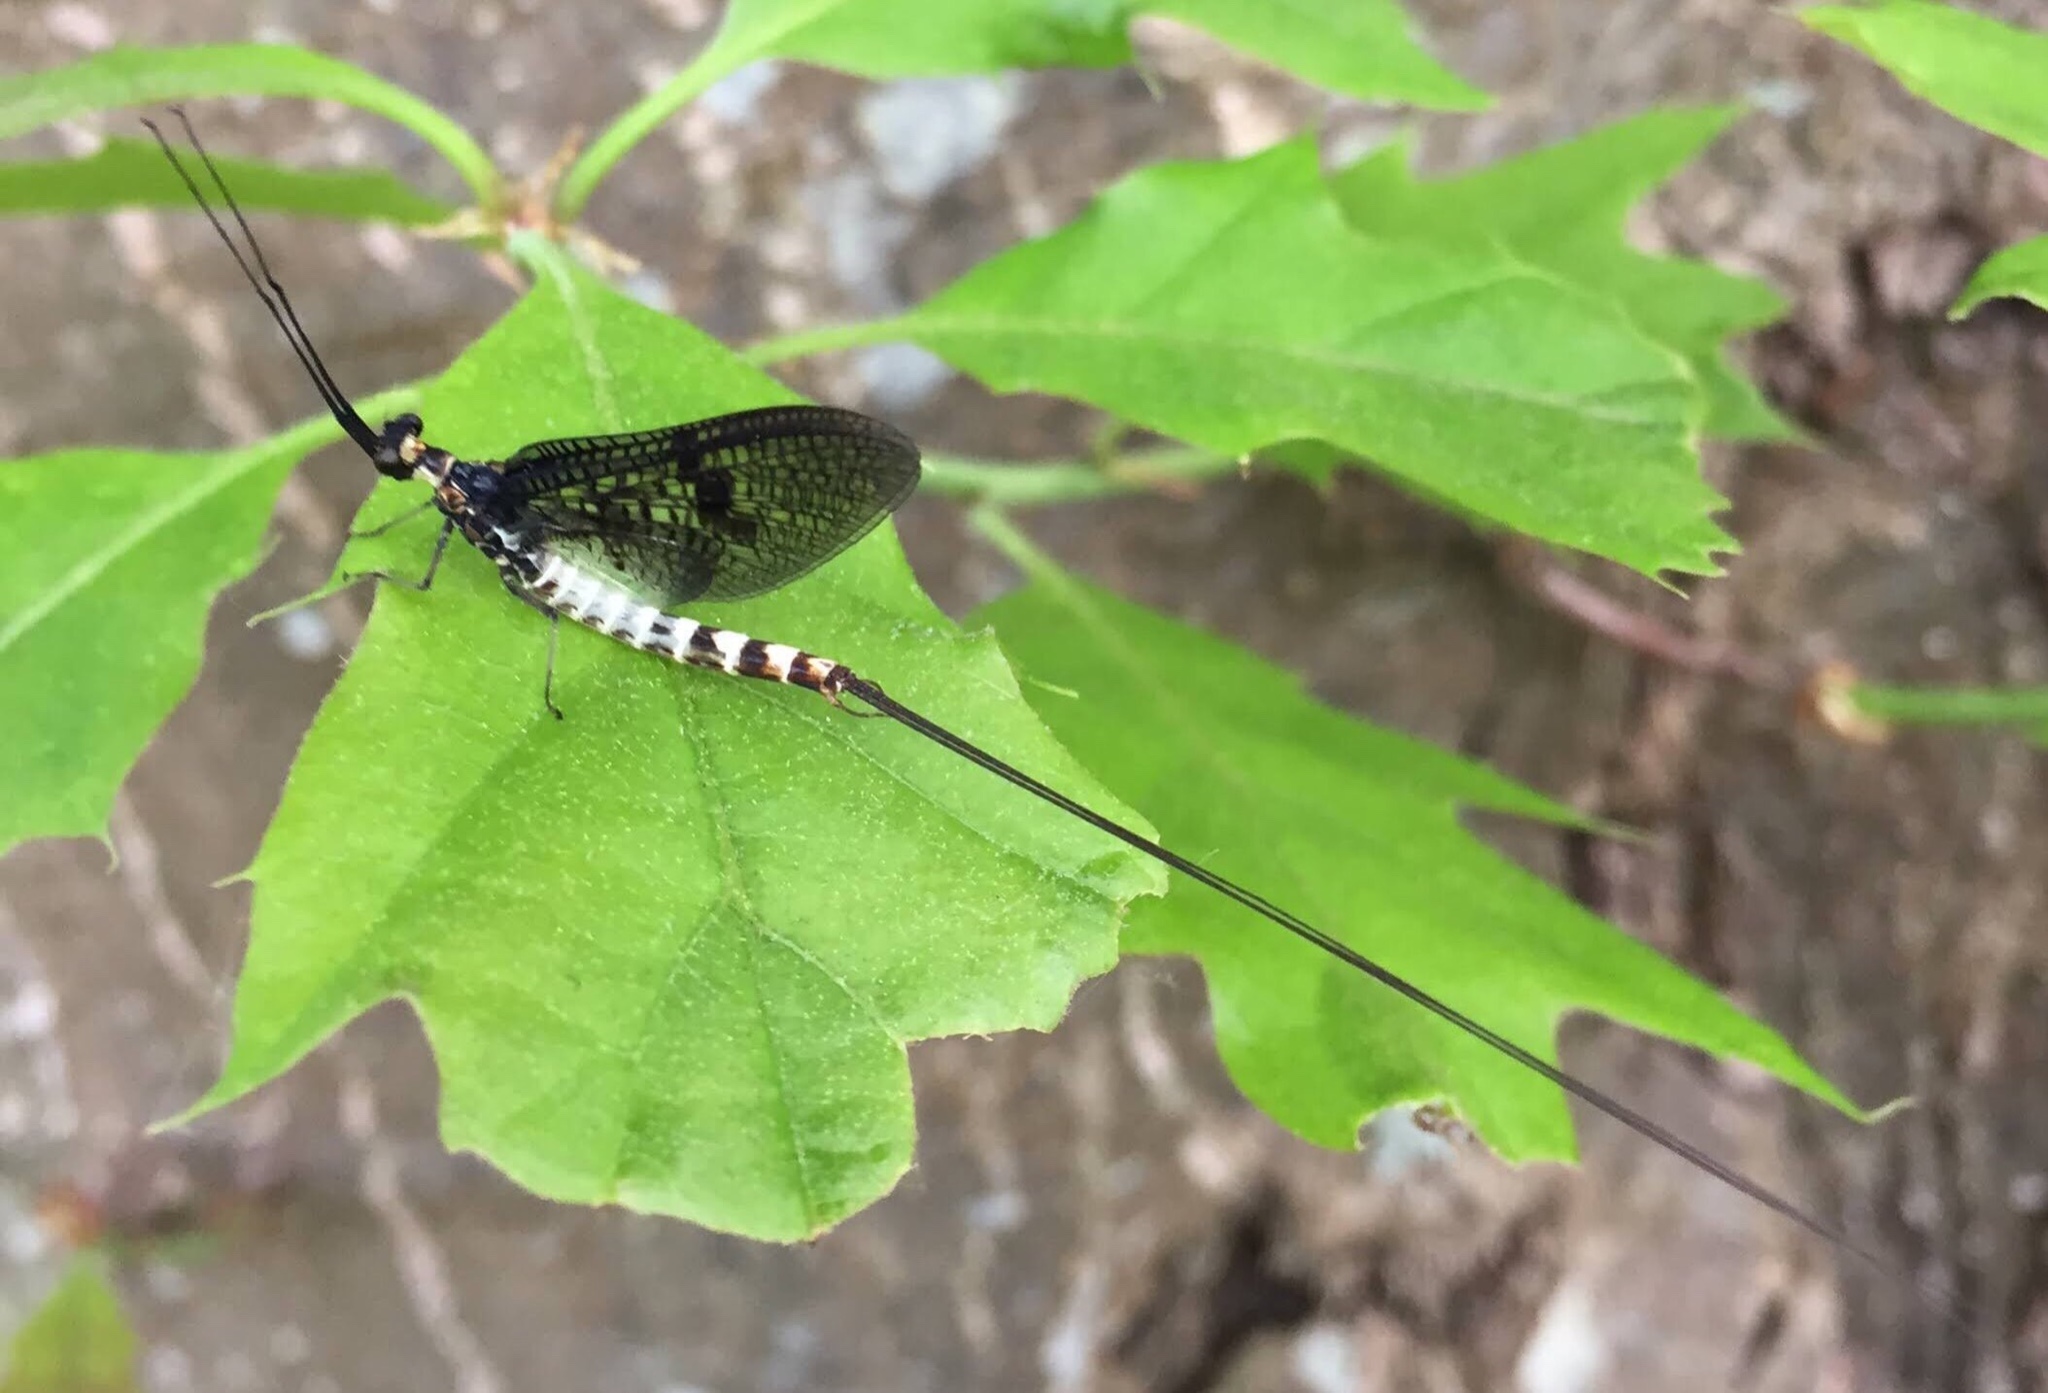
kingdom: Animalia
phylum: Arthropoda
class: Insecta
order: Ephemeroptera
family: Ephemeridae
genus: Ephemera
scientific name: Ephemera danica
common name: Green dun
